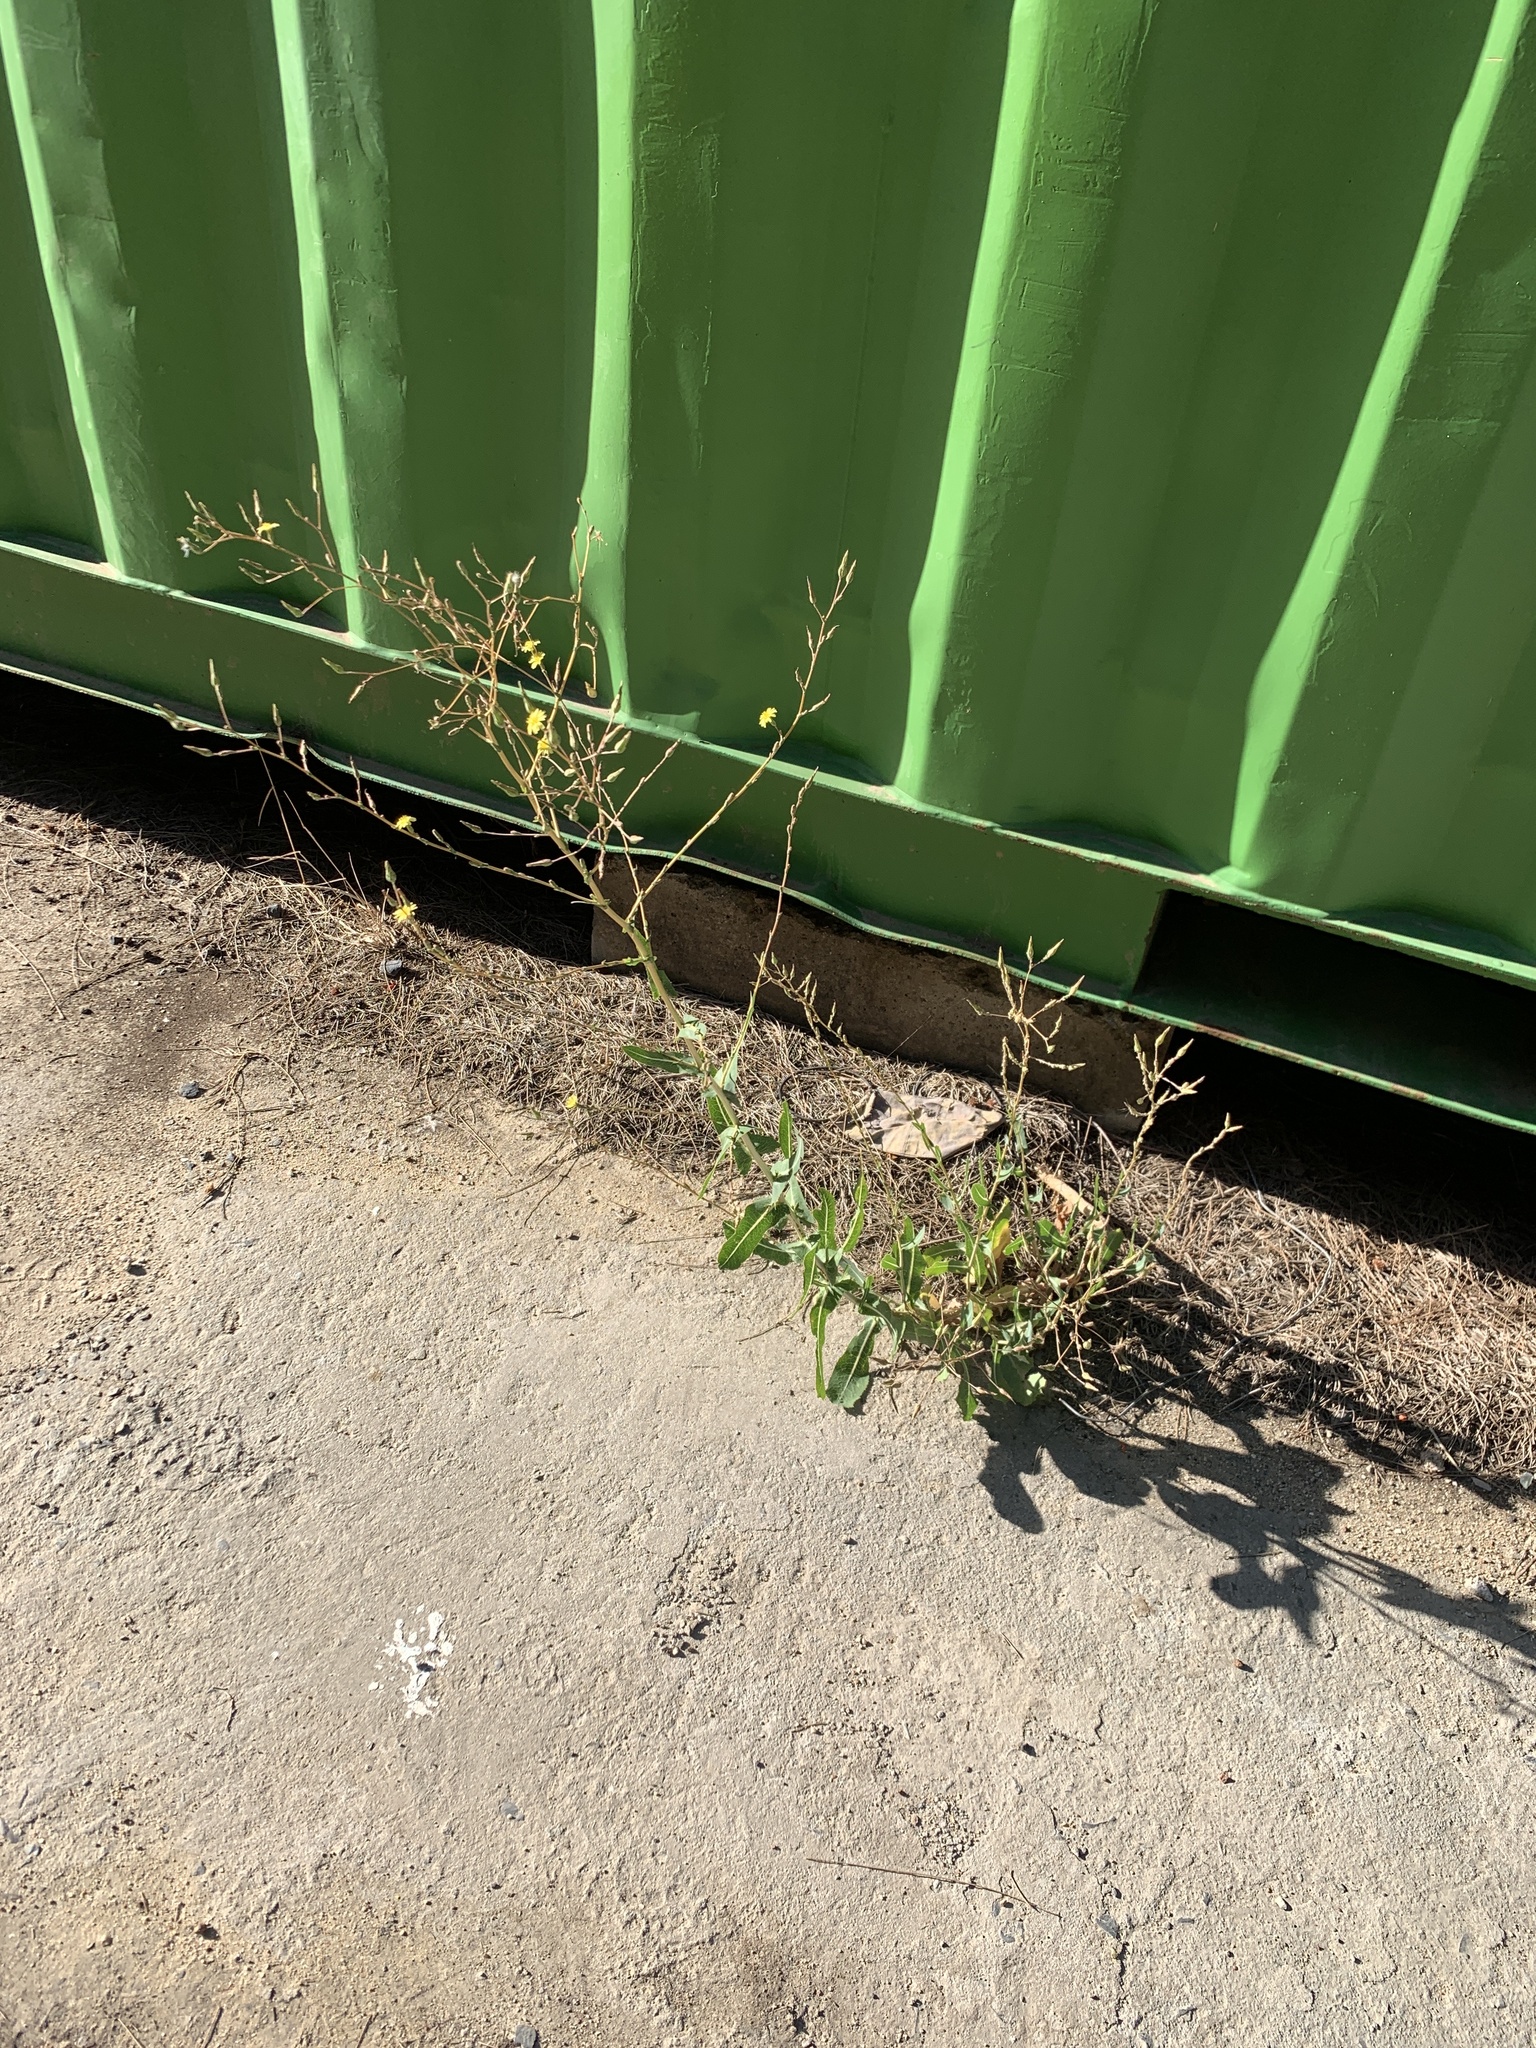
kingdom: Plantae
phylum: Tracheophyta
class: Magnoliopsida
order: Asterales
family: Asteraceae
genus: Lactuca
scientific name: Lactuca serriola
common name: Prickly lettuce
